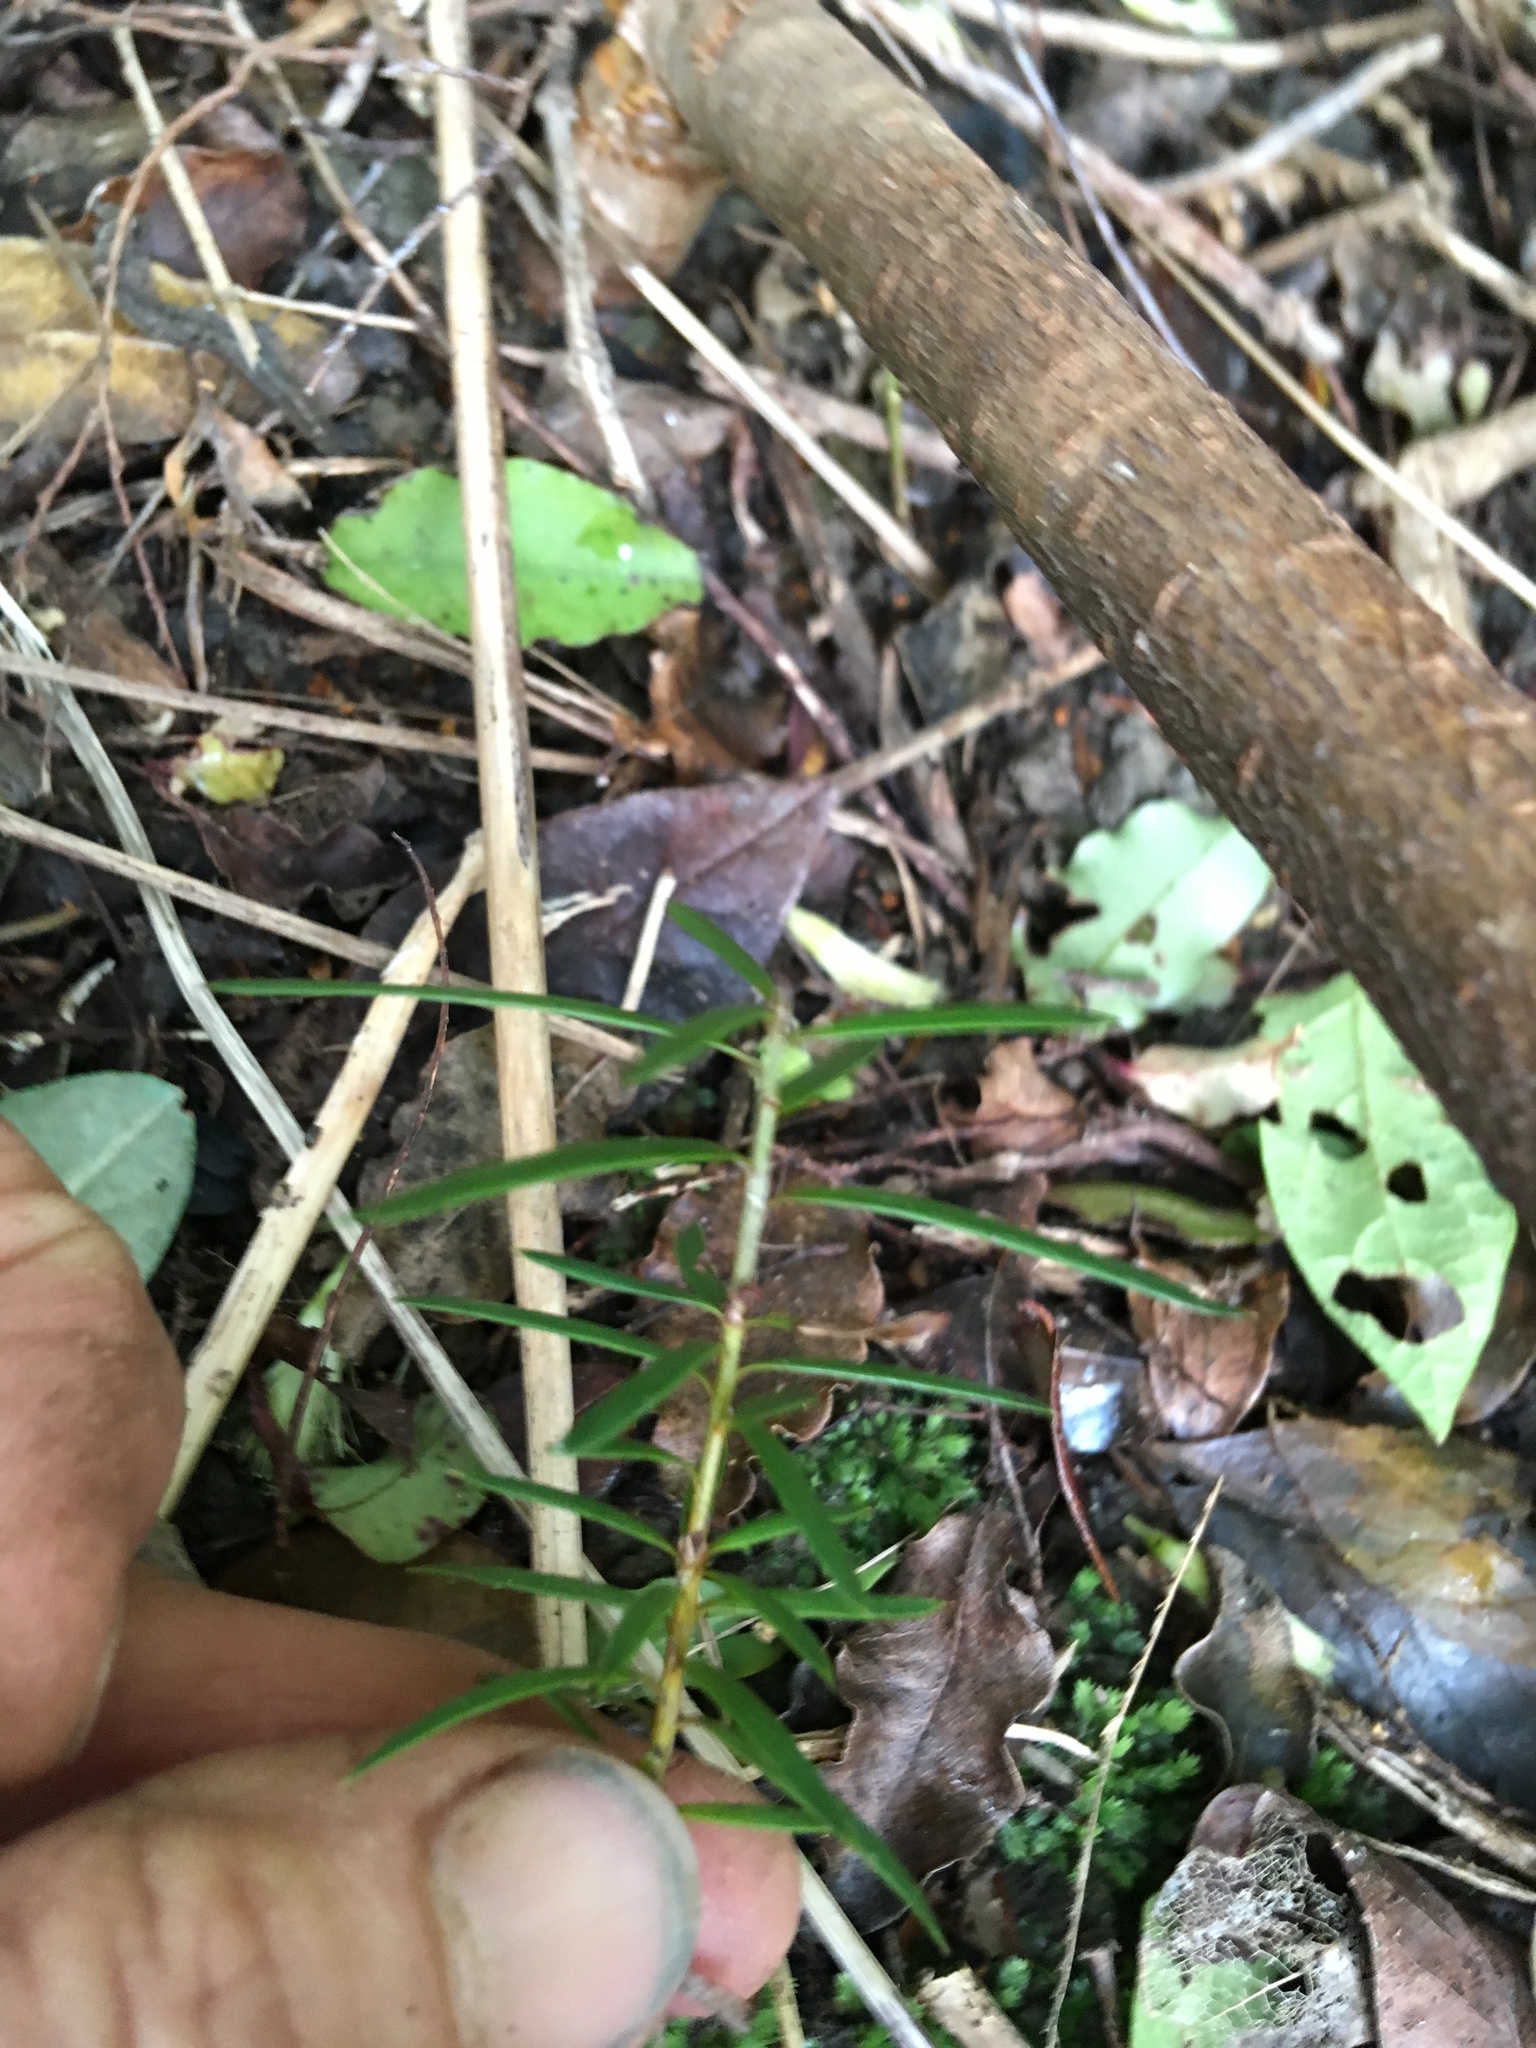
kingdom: Plantae
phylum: Tracheophyta
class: Pinopsida
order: Pinales
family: Podocarpaceae
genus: Podocarpus
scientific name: Podocarpus totara
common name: Totara
